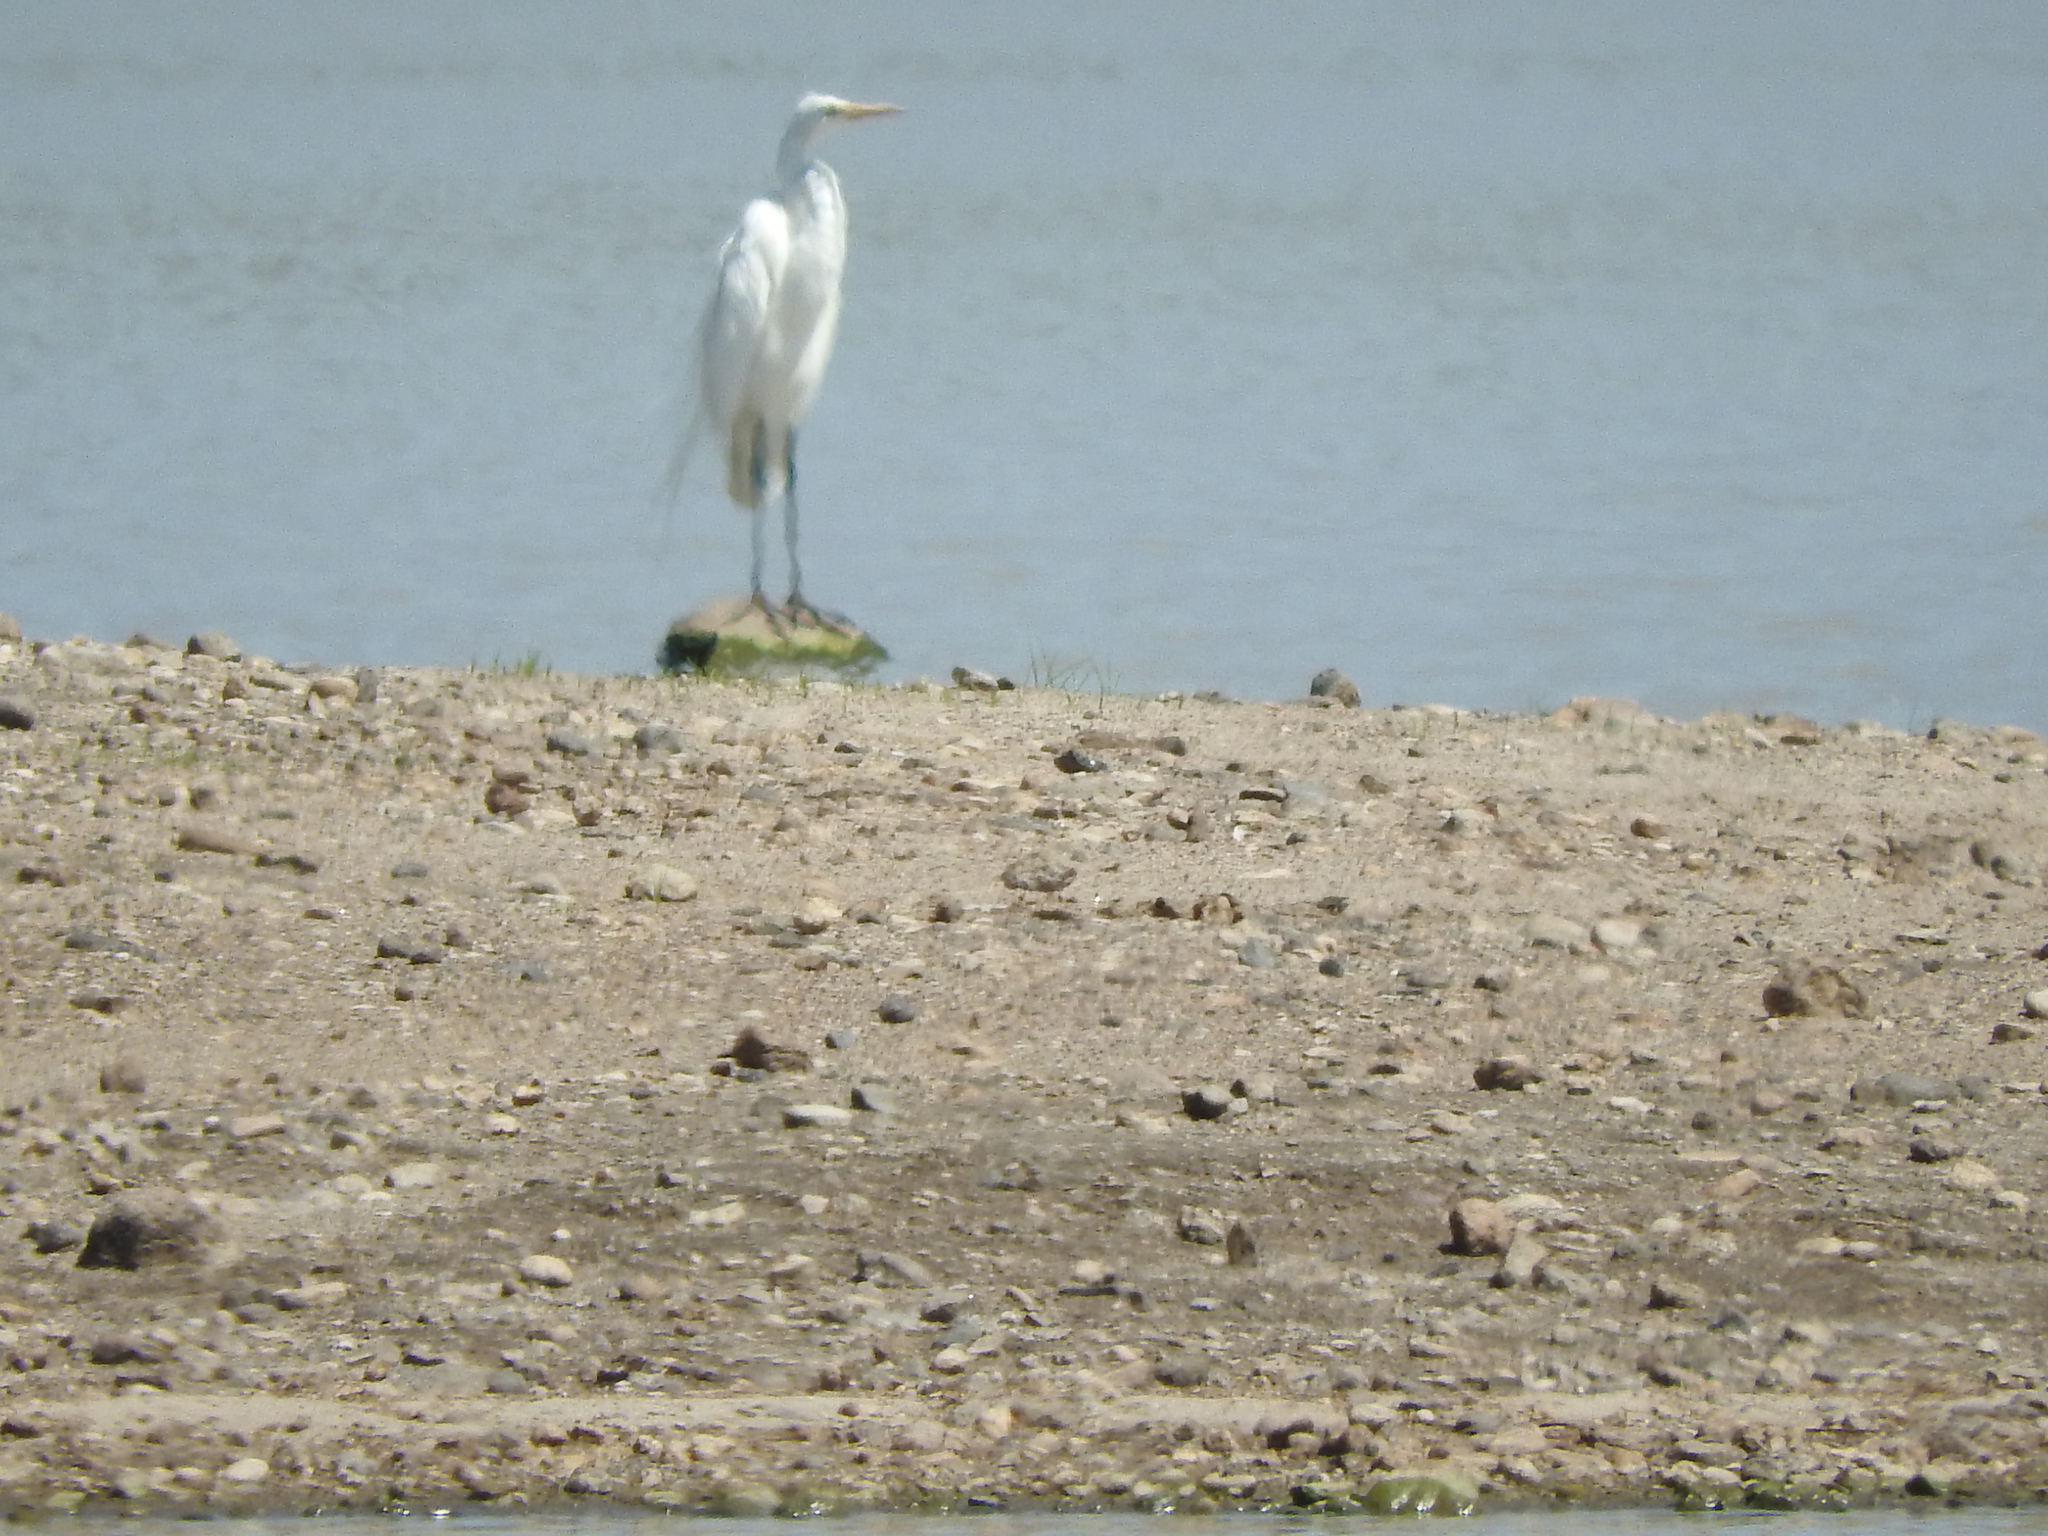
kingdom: Animalia
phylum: Chordata
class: Aves
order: Pelecaniformes
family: Ardeidae
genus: Ardea
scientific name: Ardea alba
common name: Great egret
